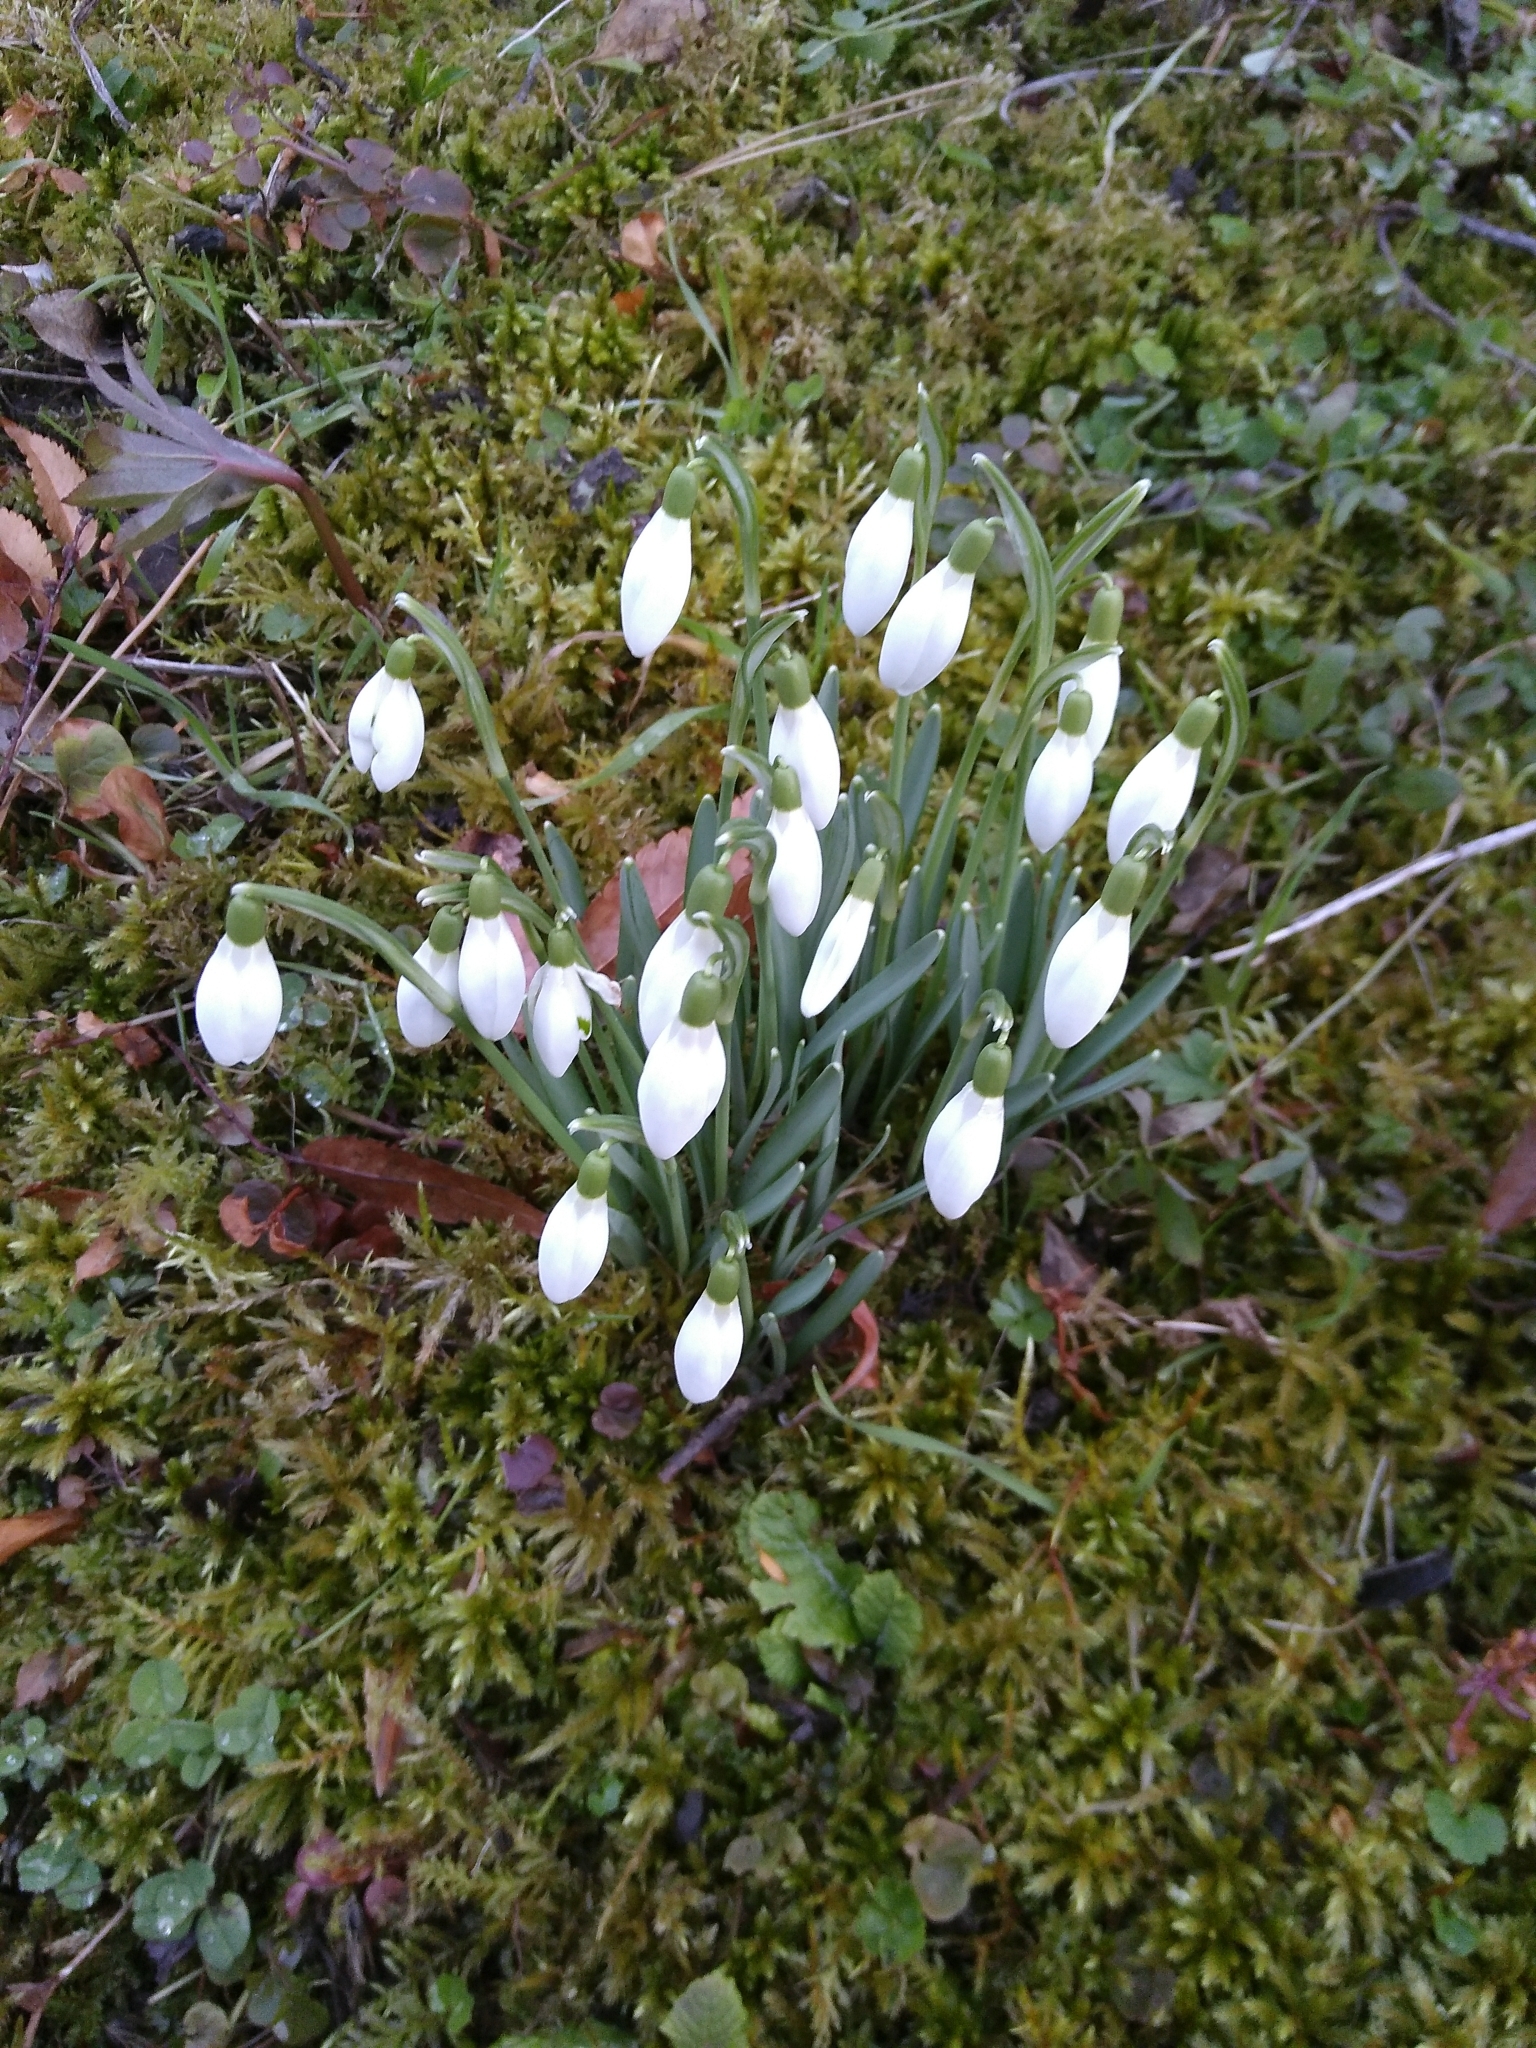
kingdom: Plantae
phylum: Tracheophyta
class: Liliopsida
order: Asparagales
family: Amaryllidaceae
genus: Galanthus
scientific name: Galanthus nivalis
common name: Snowdrop
